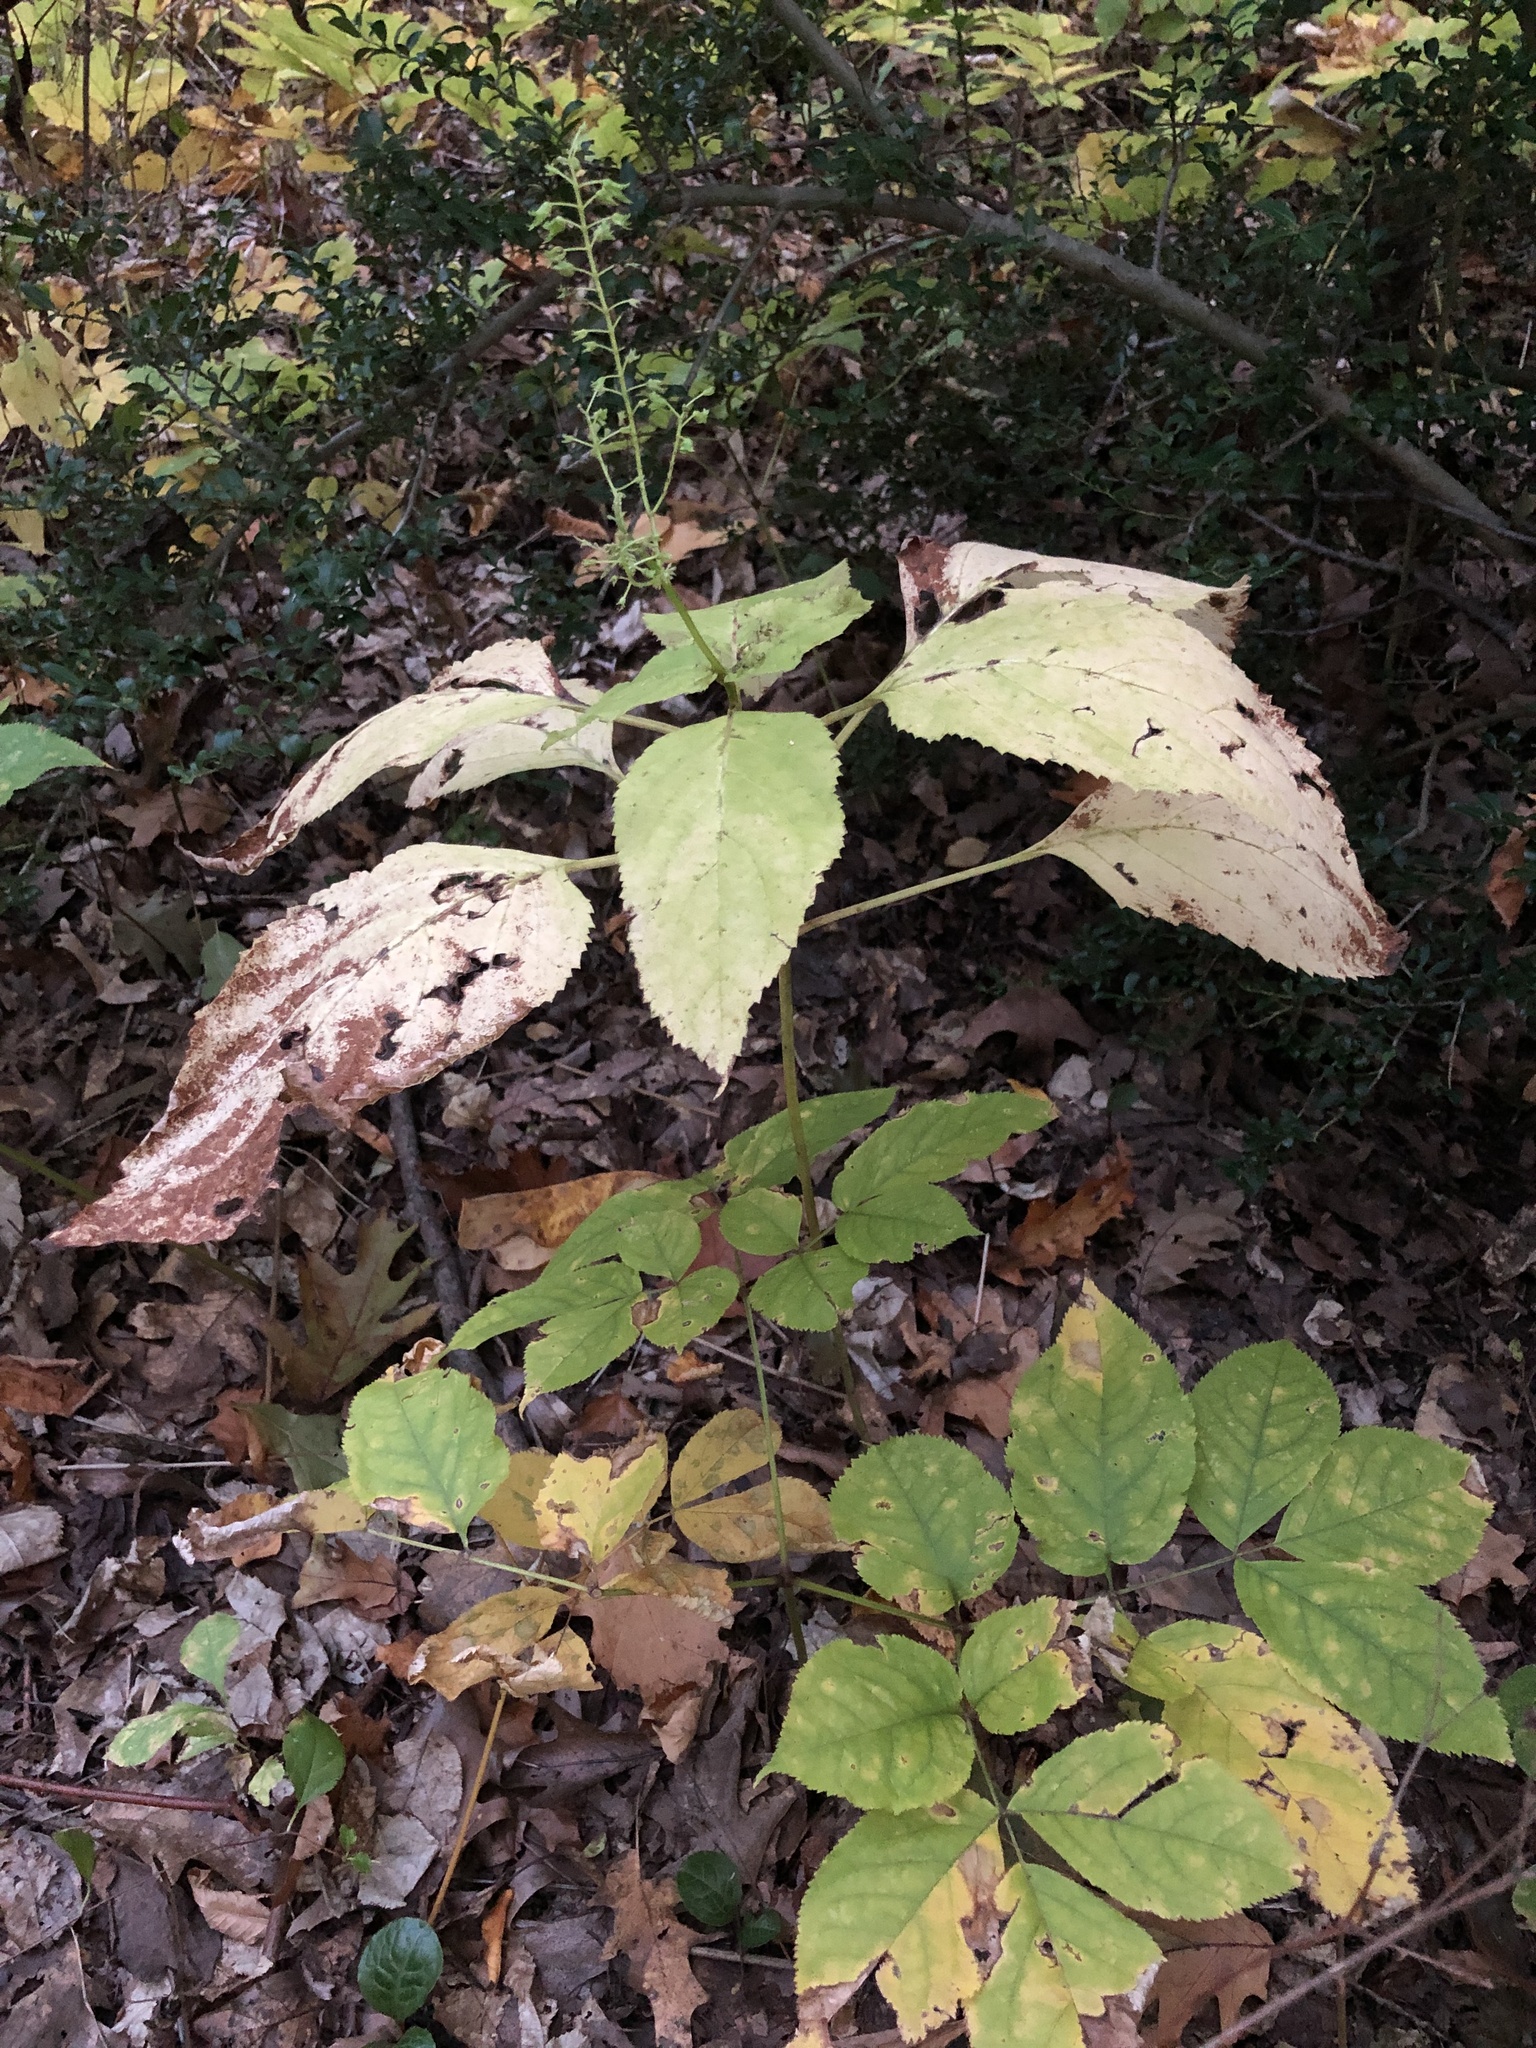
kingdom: Plantae
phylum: Tracheophyta
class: Magnoliopsida
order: Lamiales
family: Lamiaceae
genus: Collinsonia
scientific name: Collinsonia canadensis
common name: Northern horsebalm
